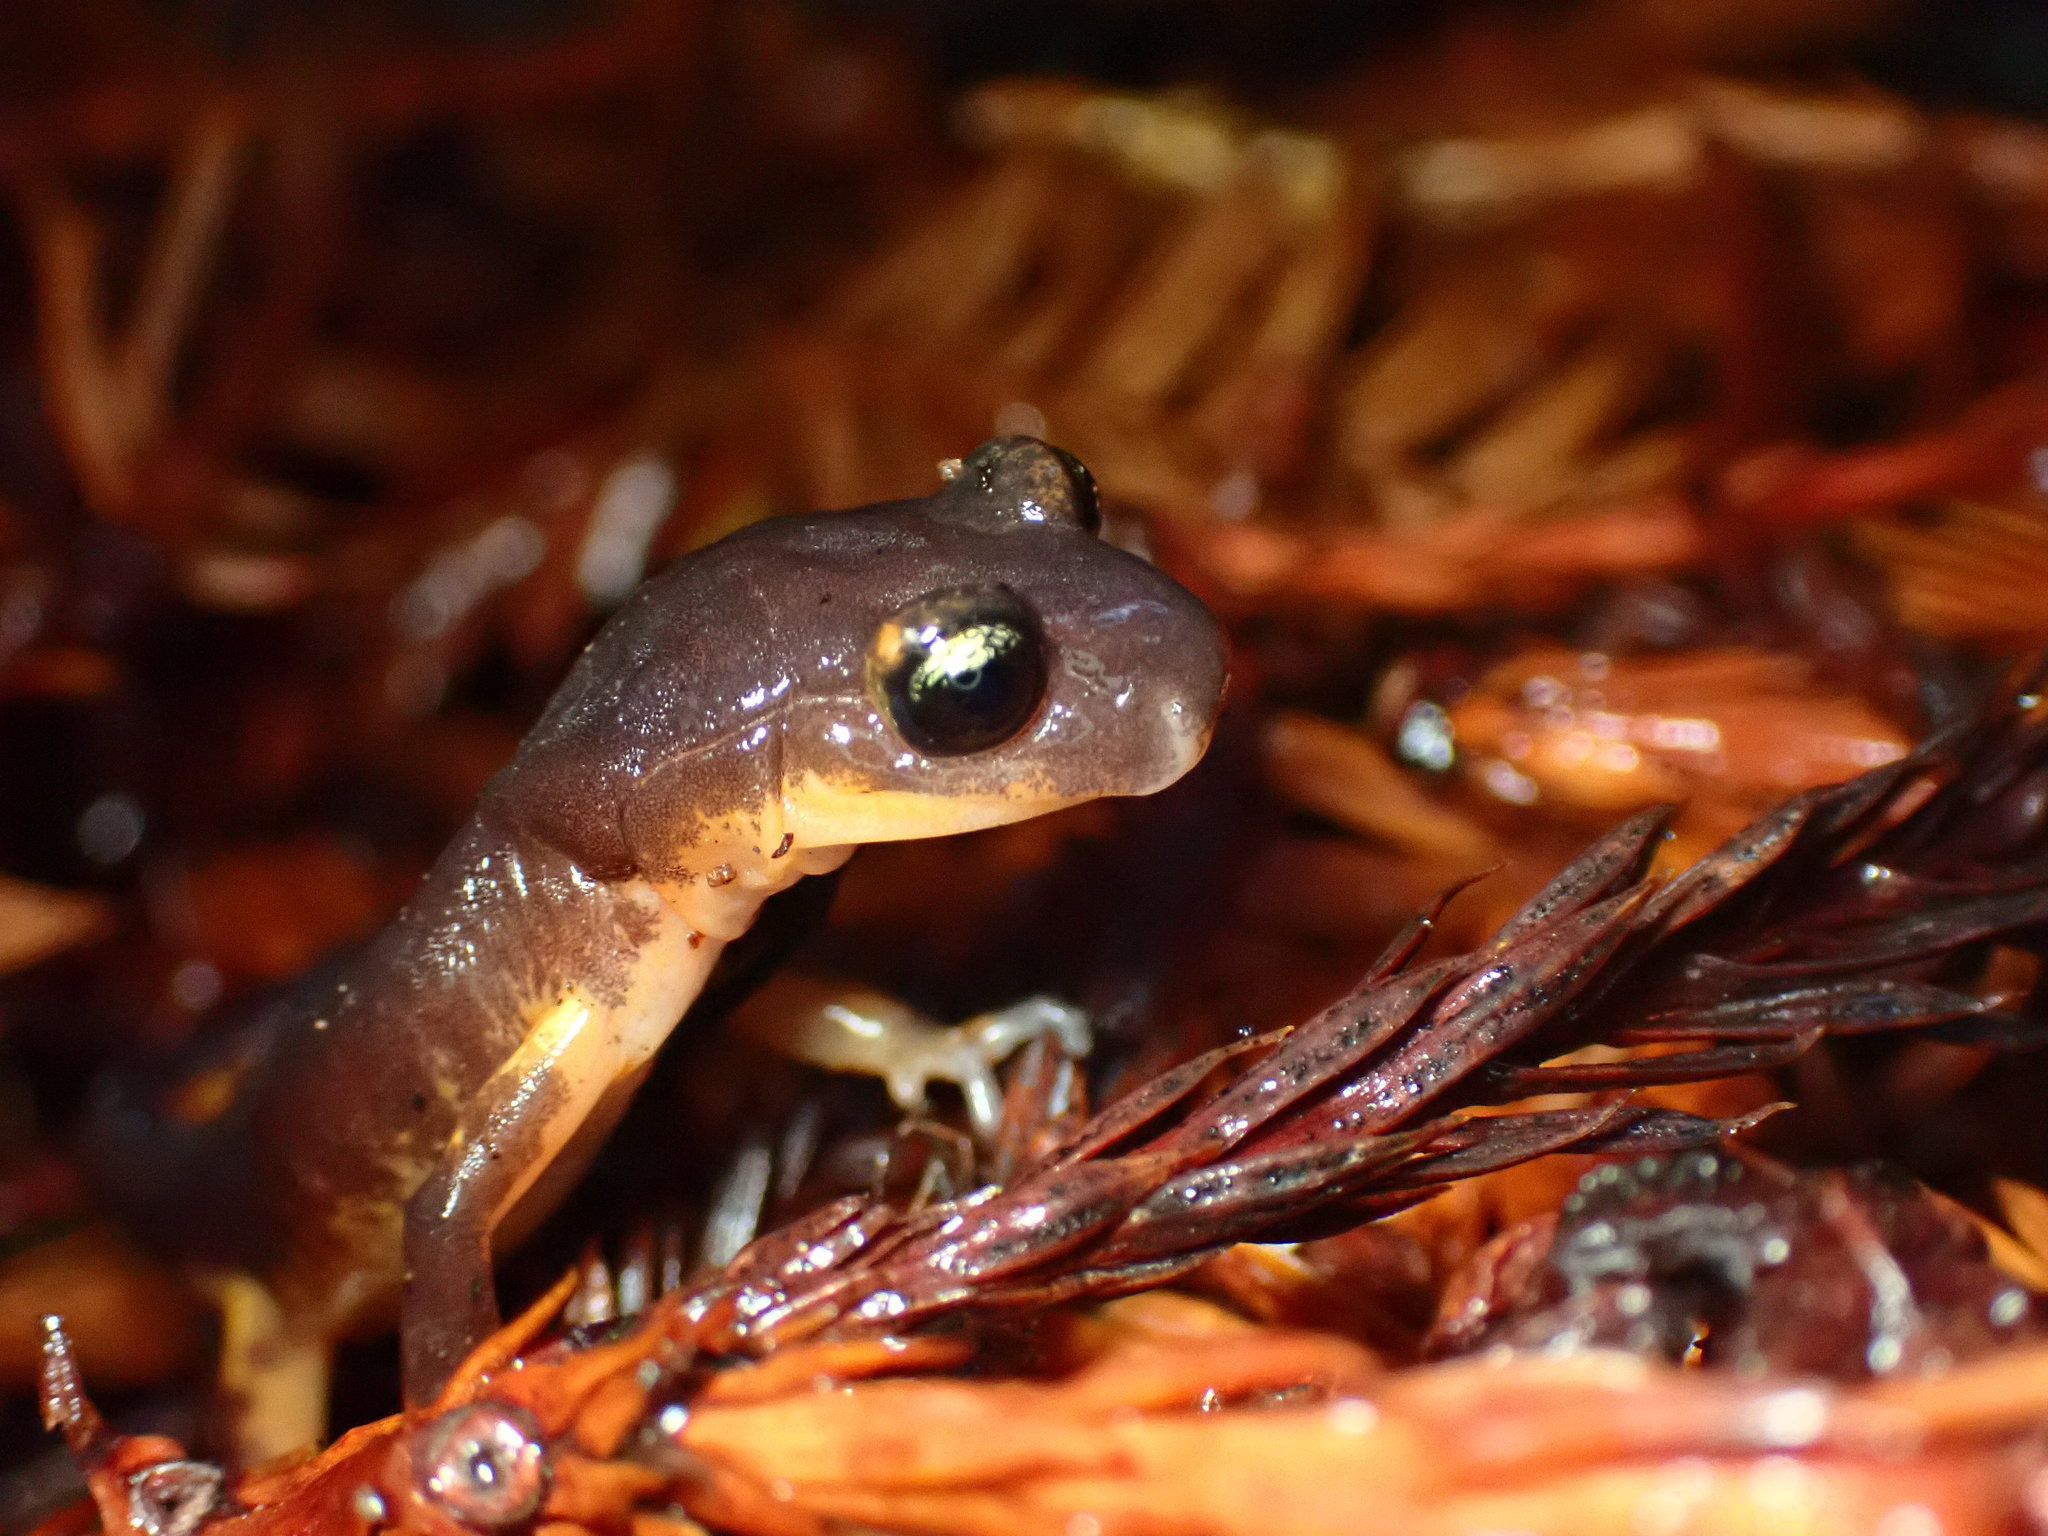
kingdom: Animalia
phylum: Chordata
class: Amphibia
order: Caudata
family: Plethodontidae
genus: Ensatina
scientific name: Ensatina eschscholtzii
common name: Ensatina
